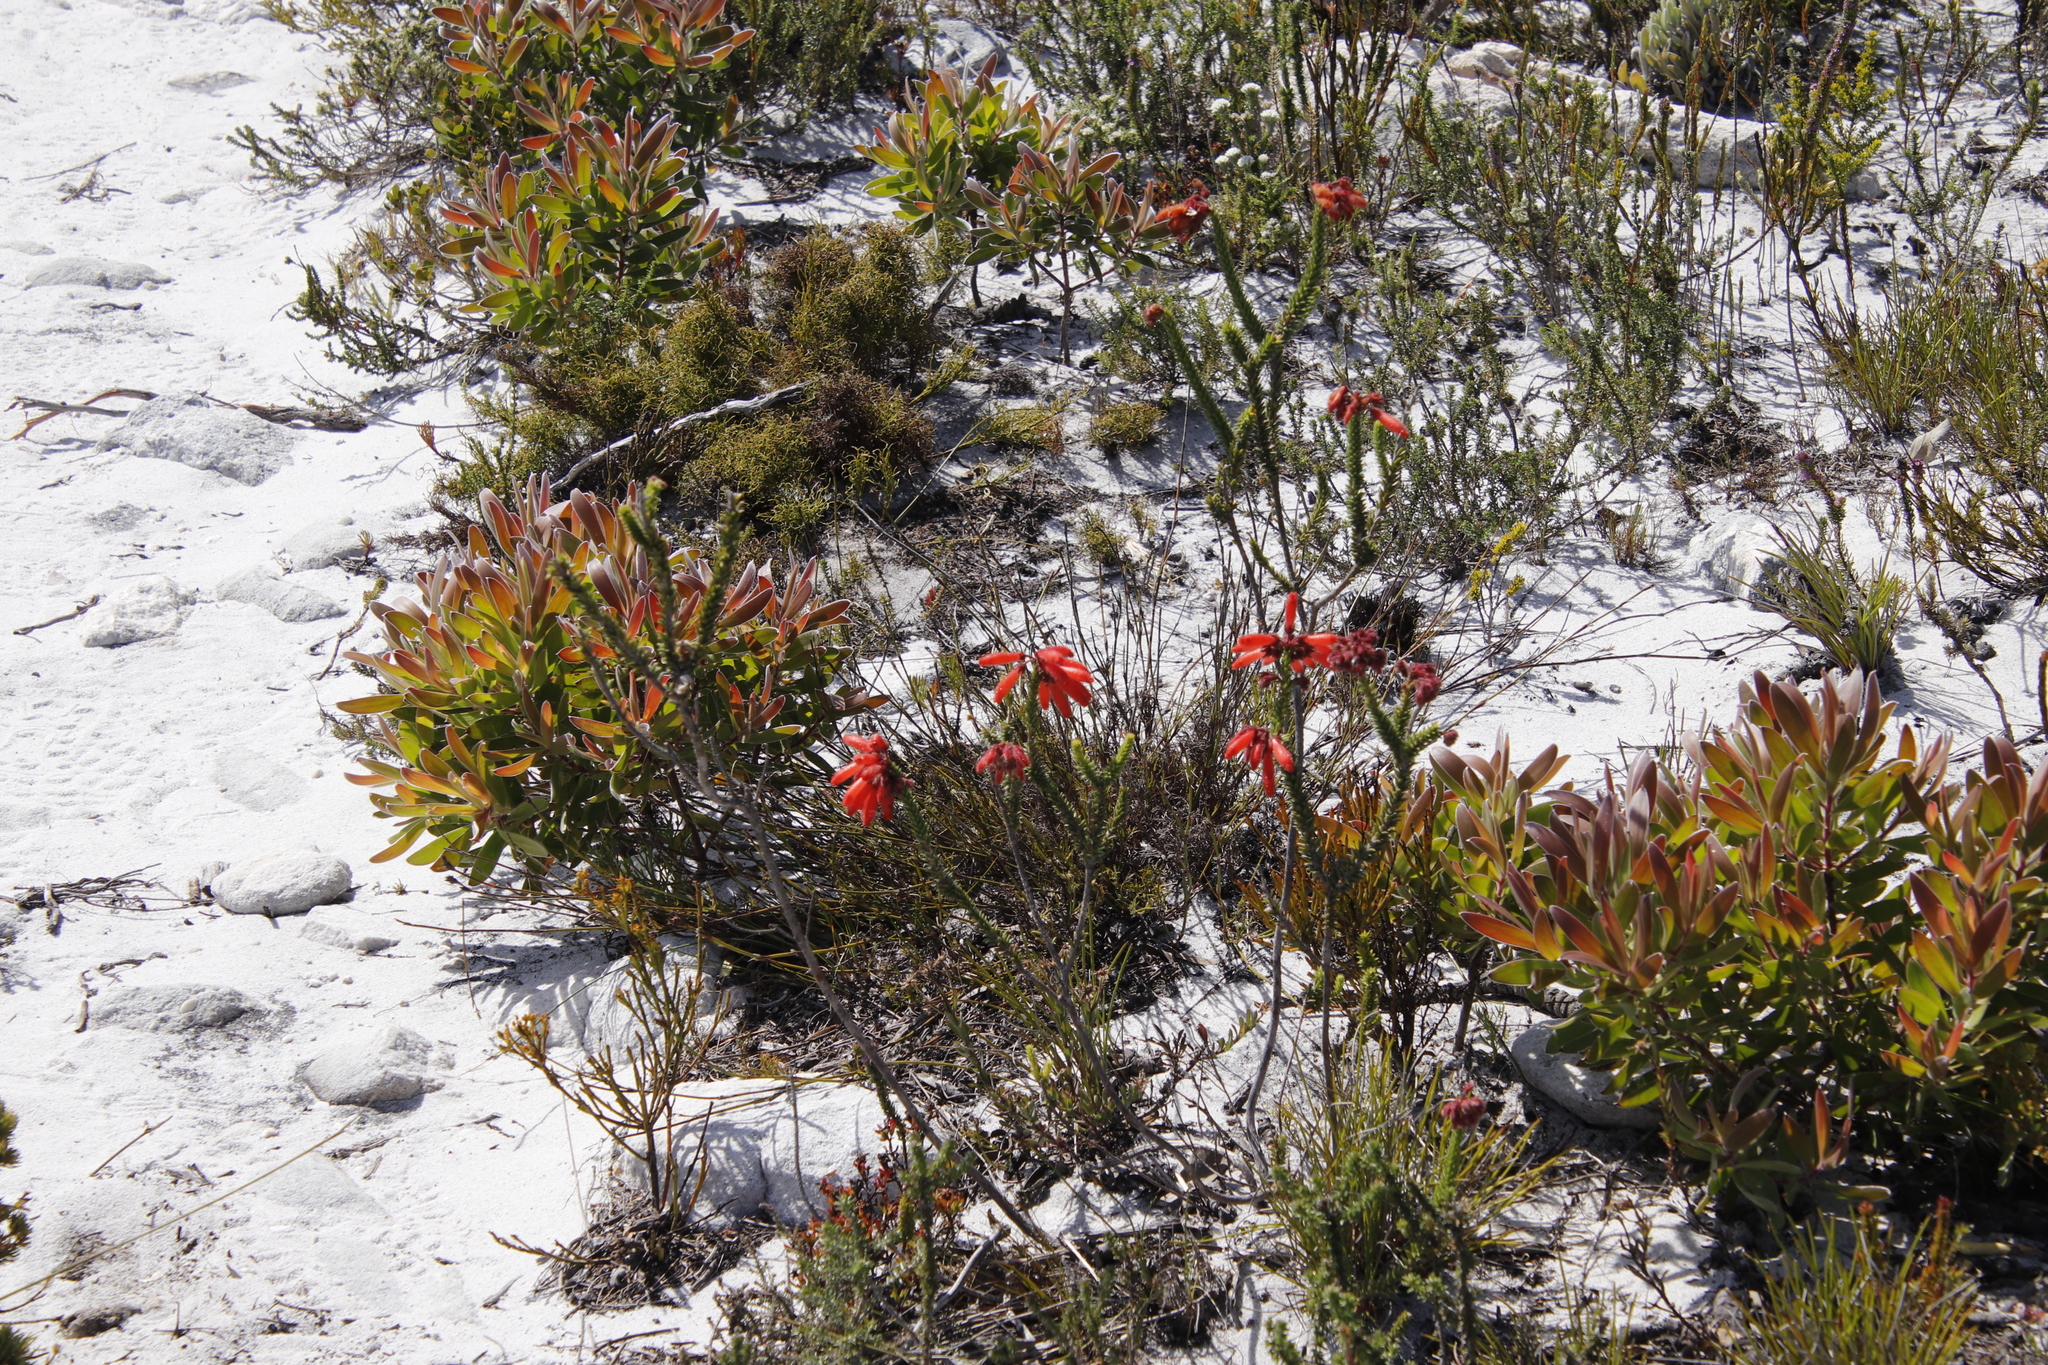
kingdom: Plantae
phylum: Tracheophyta
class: Magnoliopsida
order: Ericales
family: Ericaceae
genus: Erica
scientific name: Erica cerinthoides
